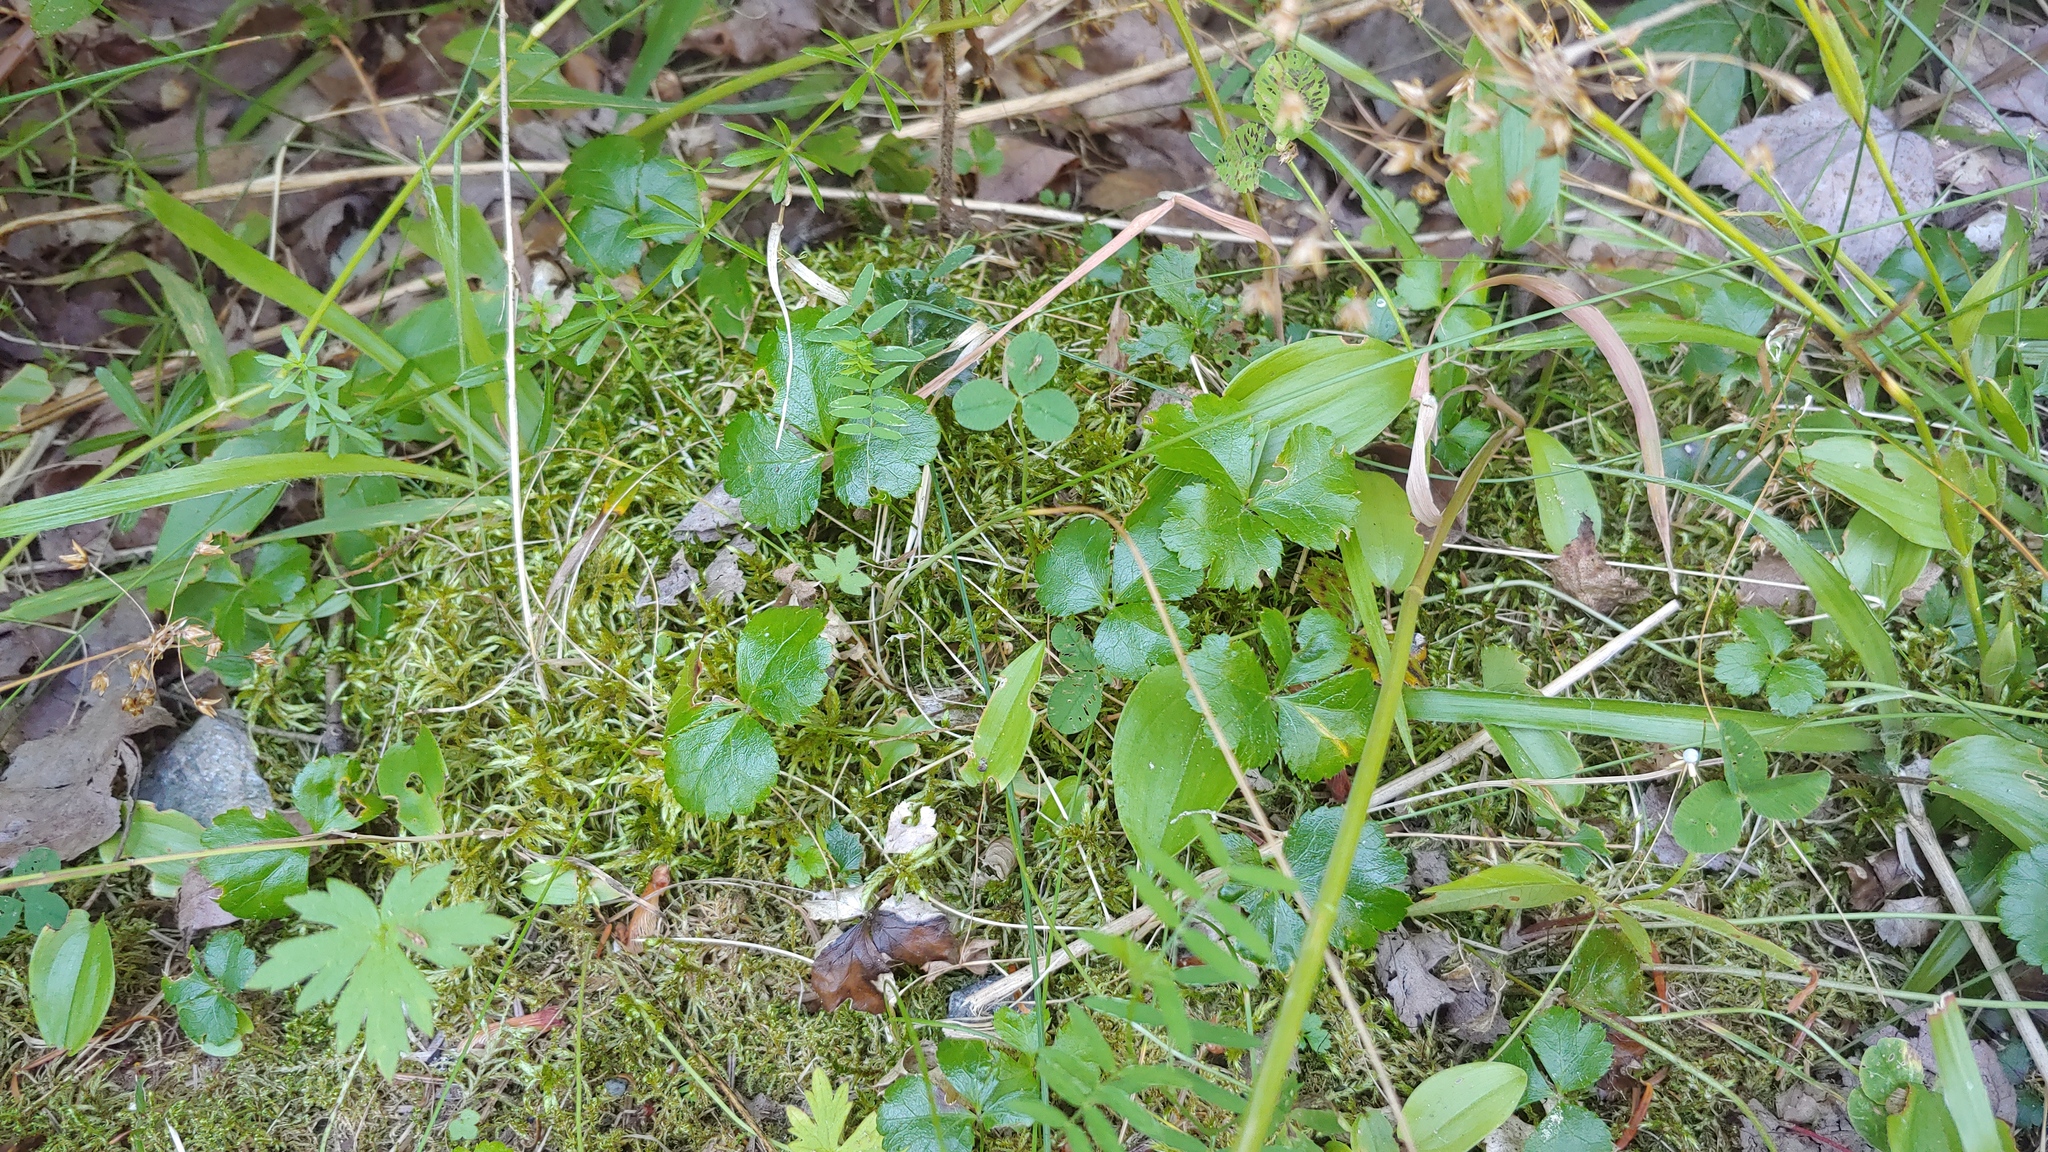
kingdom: Plantae
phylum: Tracheophyta
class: Magnoliopsida
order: Ranunculales
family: Ranunculaceae
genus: Coptis
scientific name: Coptis trifolia
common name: Canker-root
